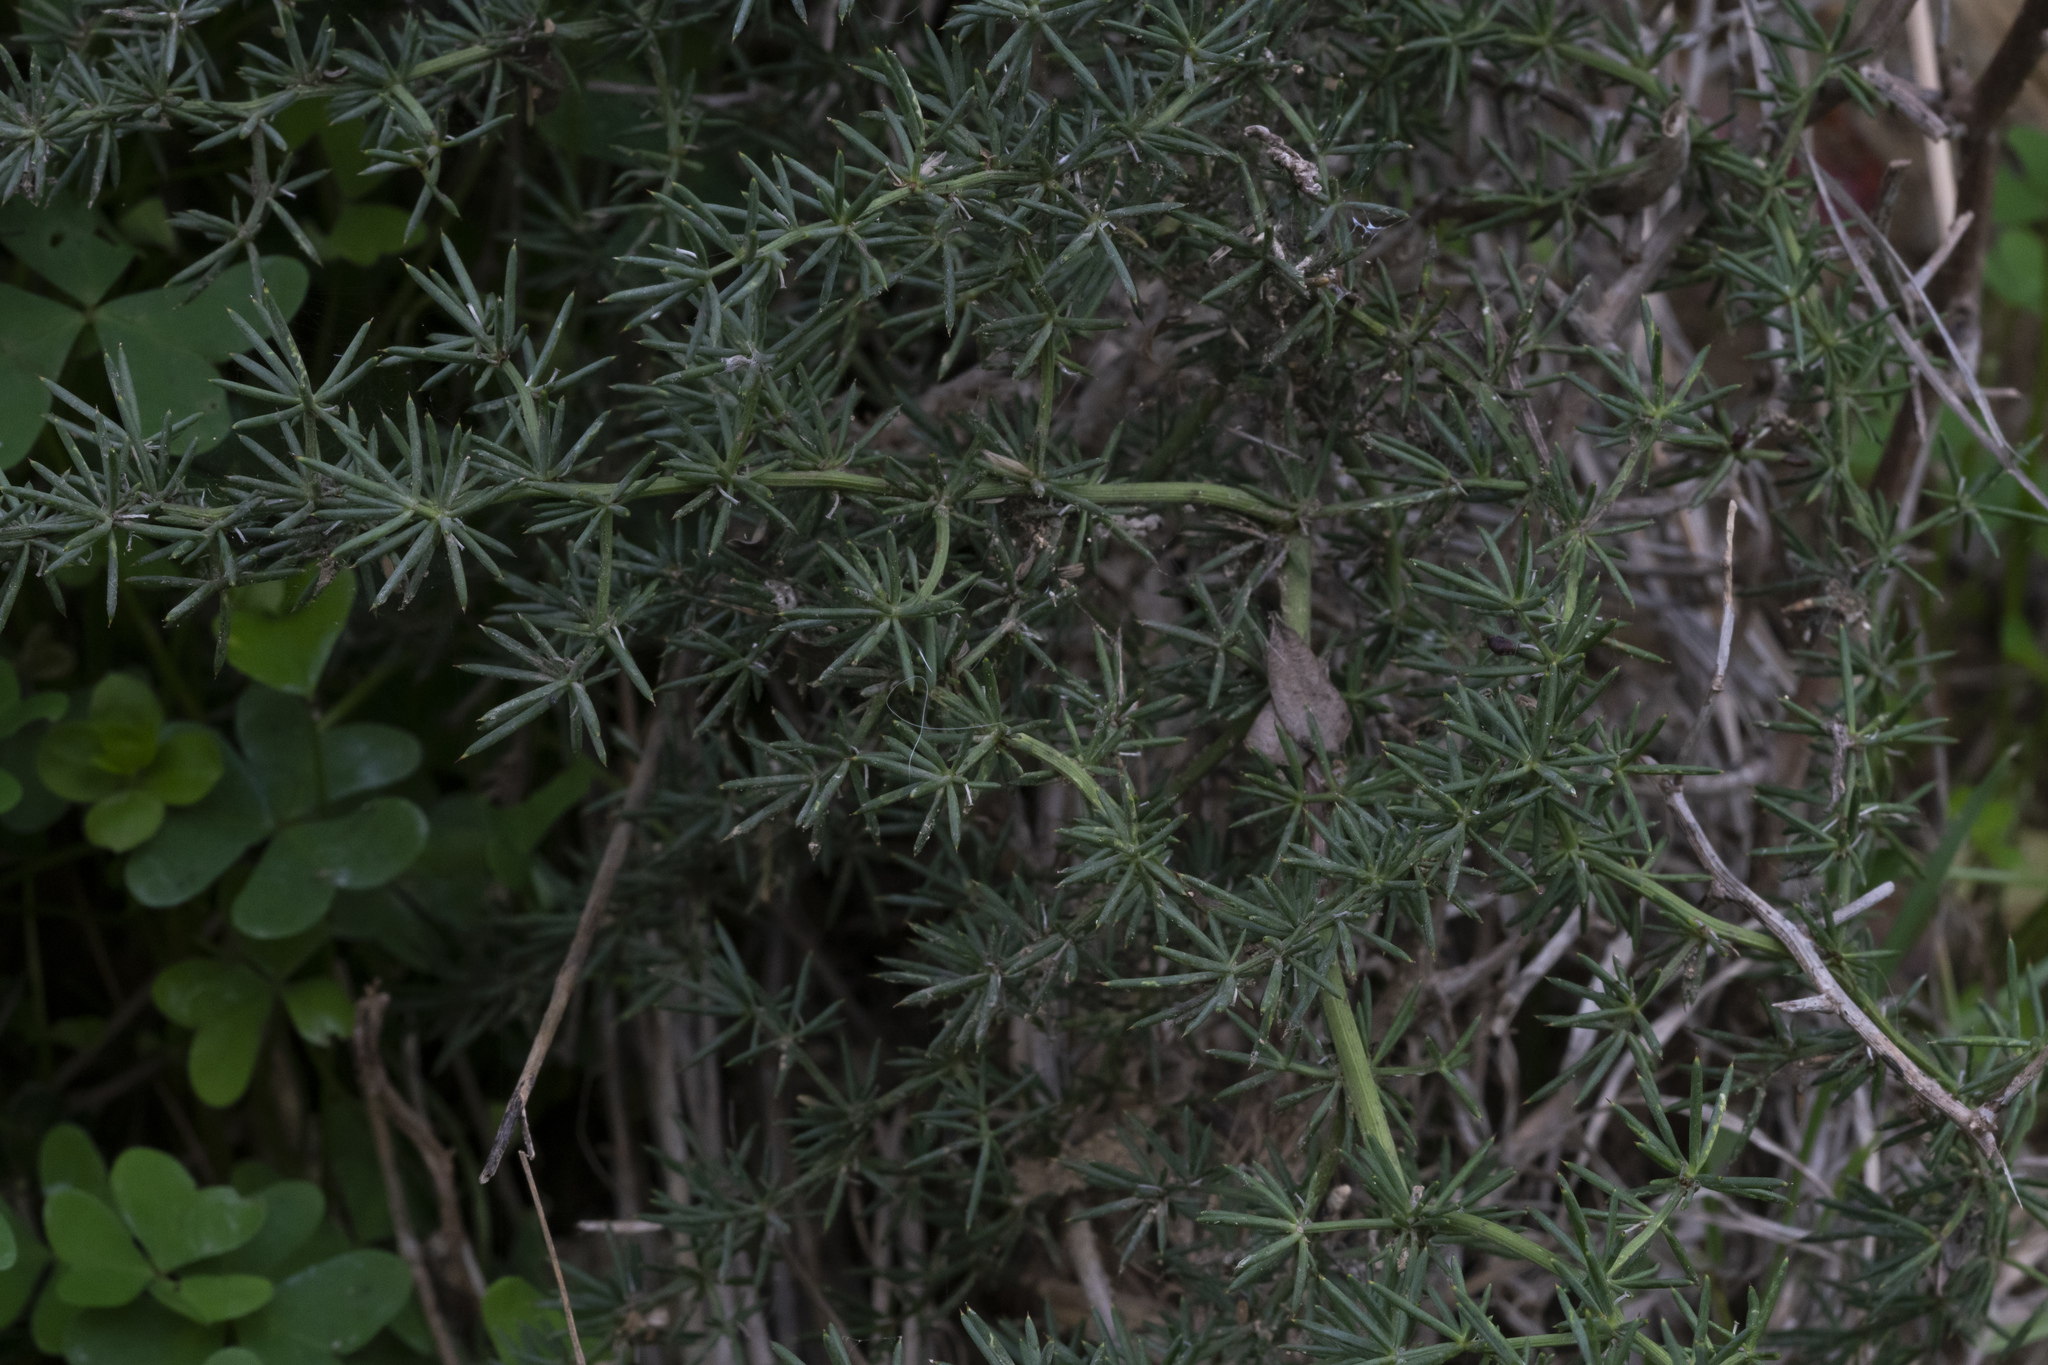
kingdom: Plantae
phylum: Tracheophyta
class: Liliopsida
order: Asparagales
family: Asparagaceae
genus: Asparagus
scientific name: Asparagus aphyllus
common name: Mediterranean asparagus
